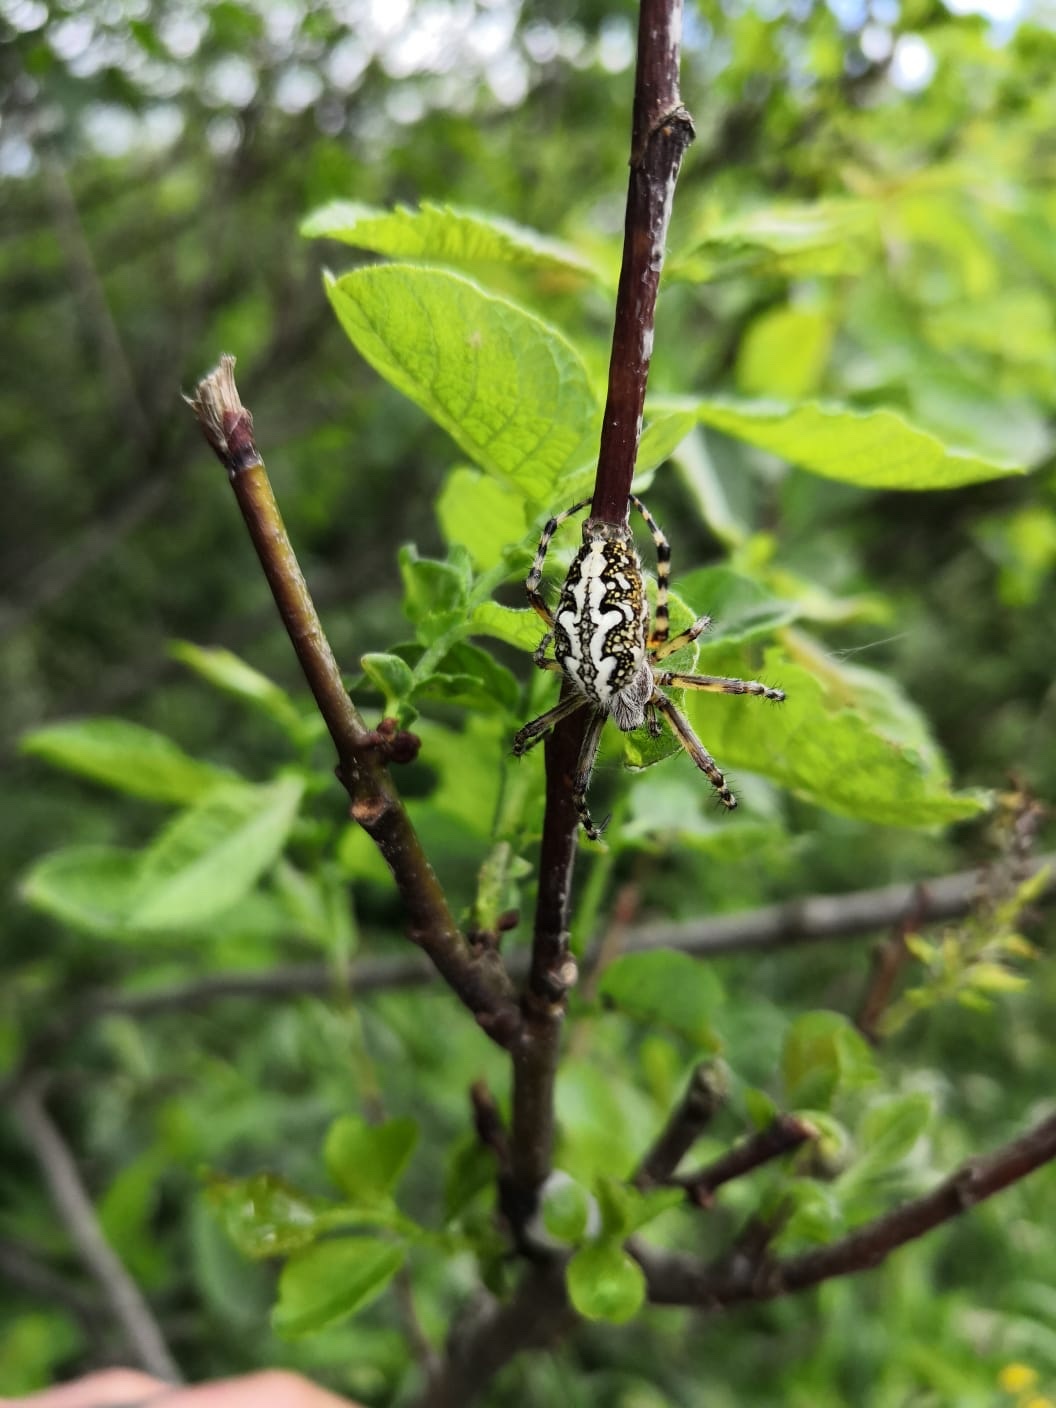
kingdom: Animalia
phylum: Arthropoda
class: Arachnida
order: Araneae
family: Araneidae
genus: Aculepeira
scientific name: Aculepeira ceropegia
